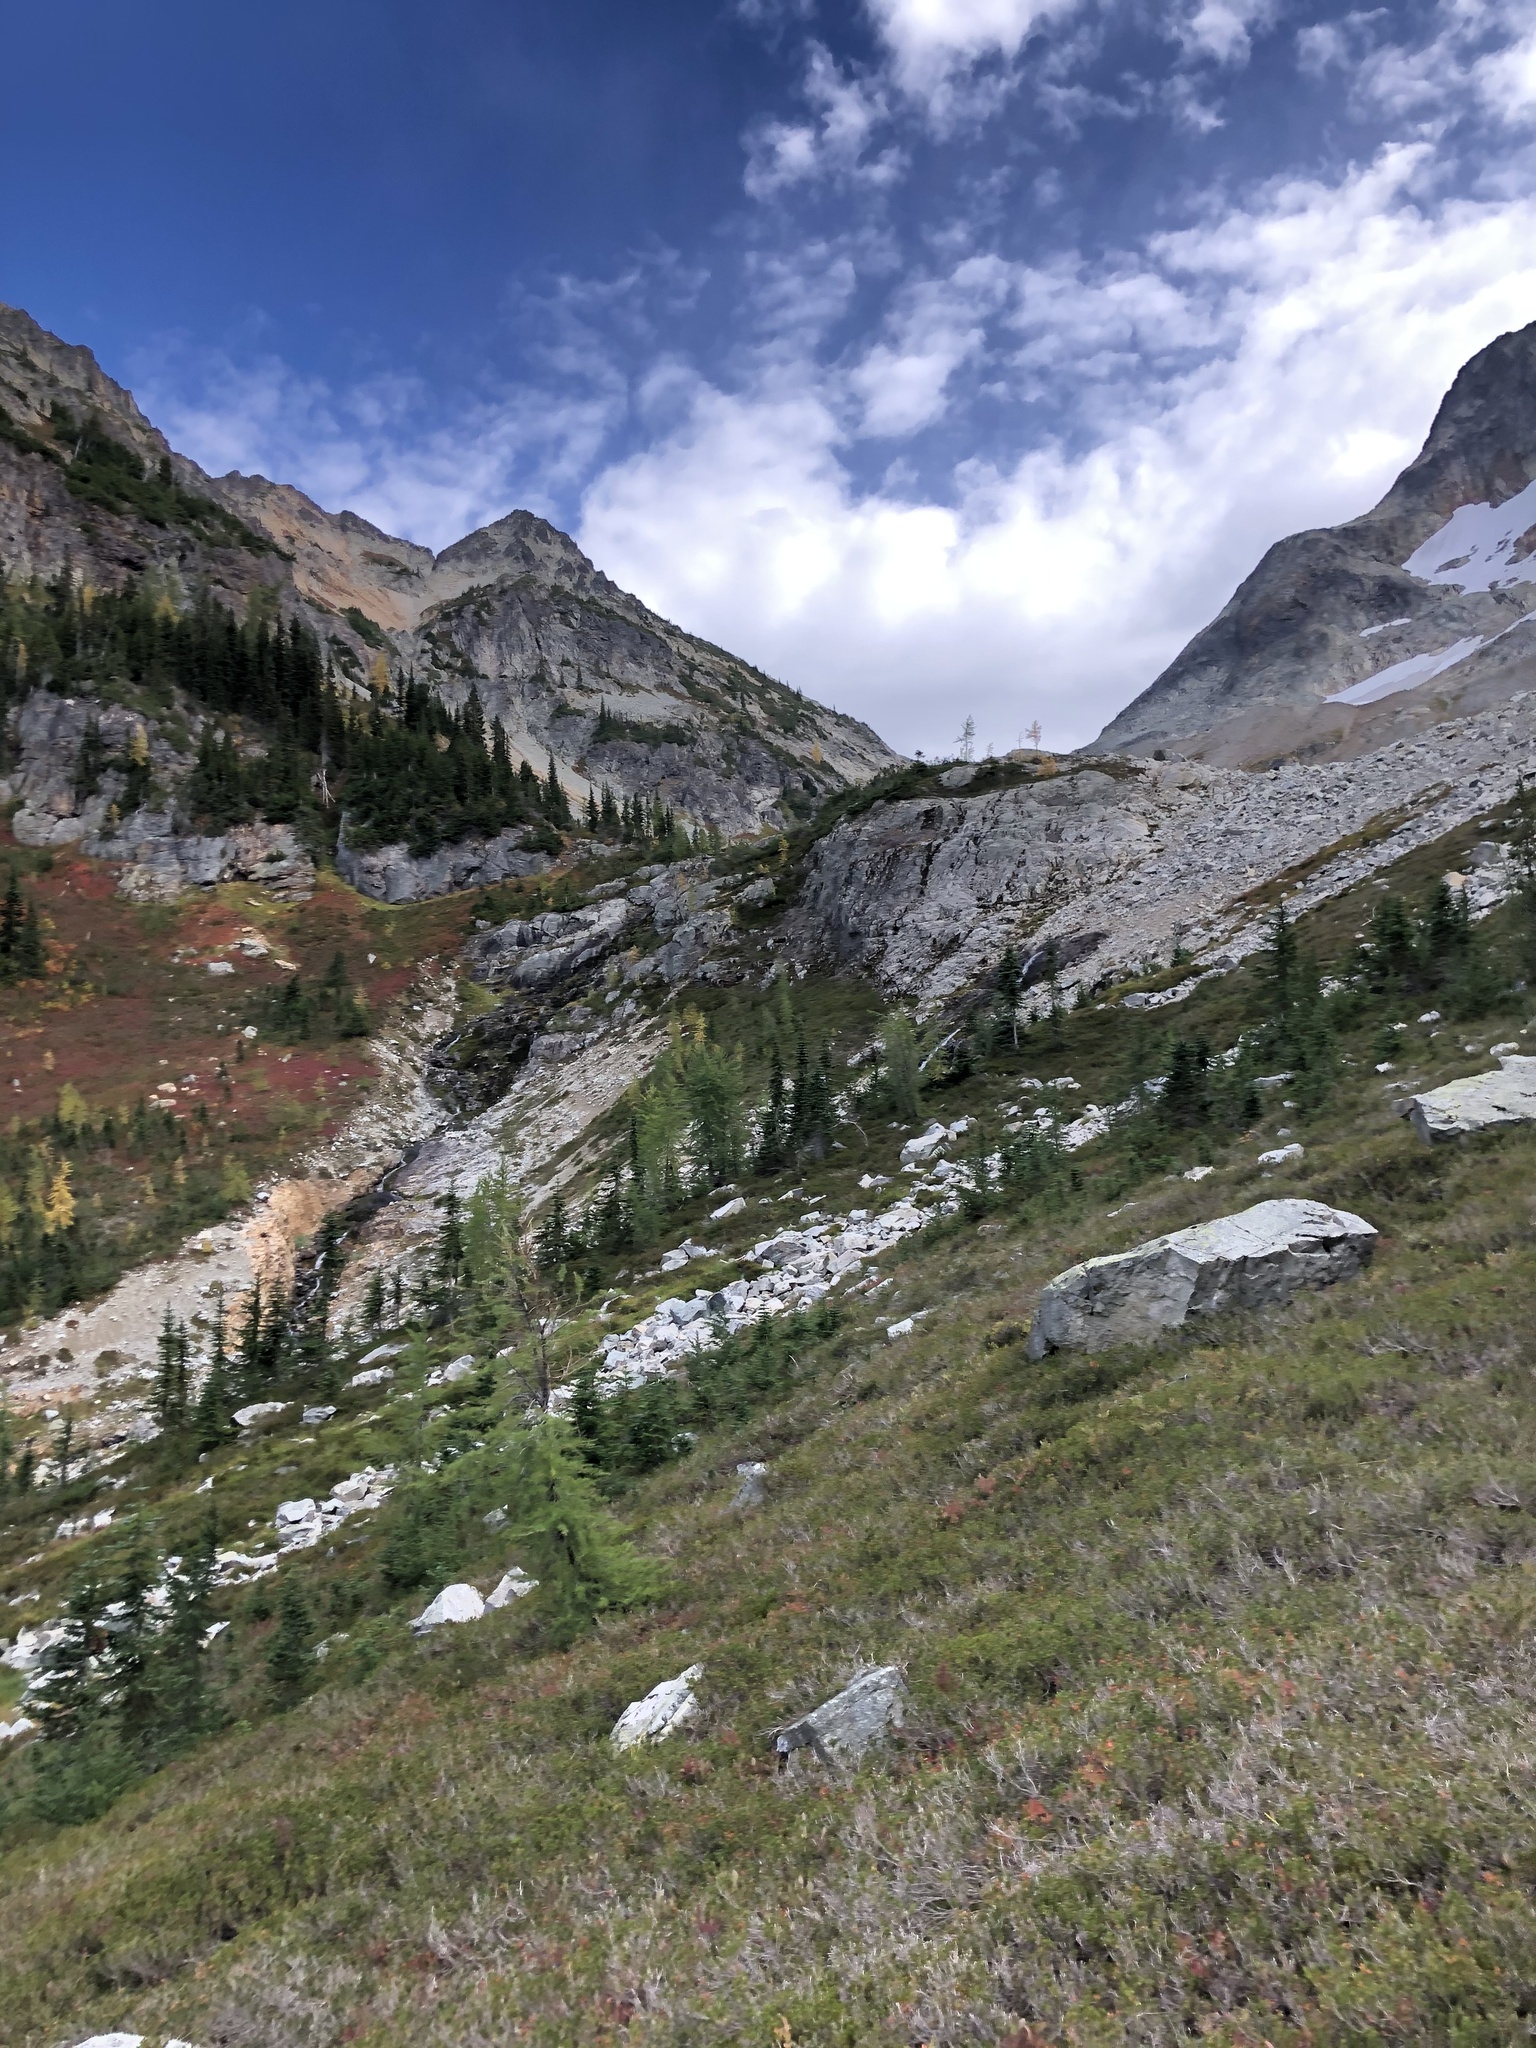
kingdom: Plantae
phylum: Tracheophyta
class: Pinopsida
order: Pinales
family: Pinaceae
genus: Larix
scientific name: Larix lyallii
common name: Alpine larch
